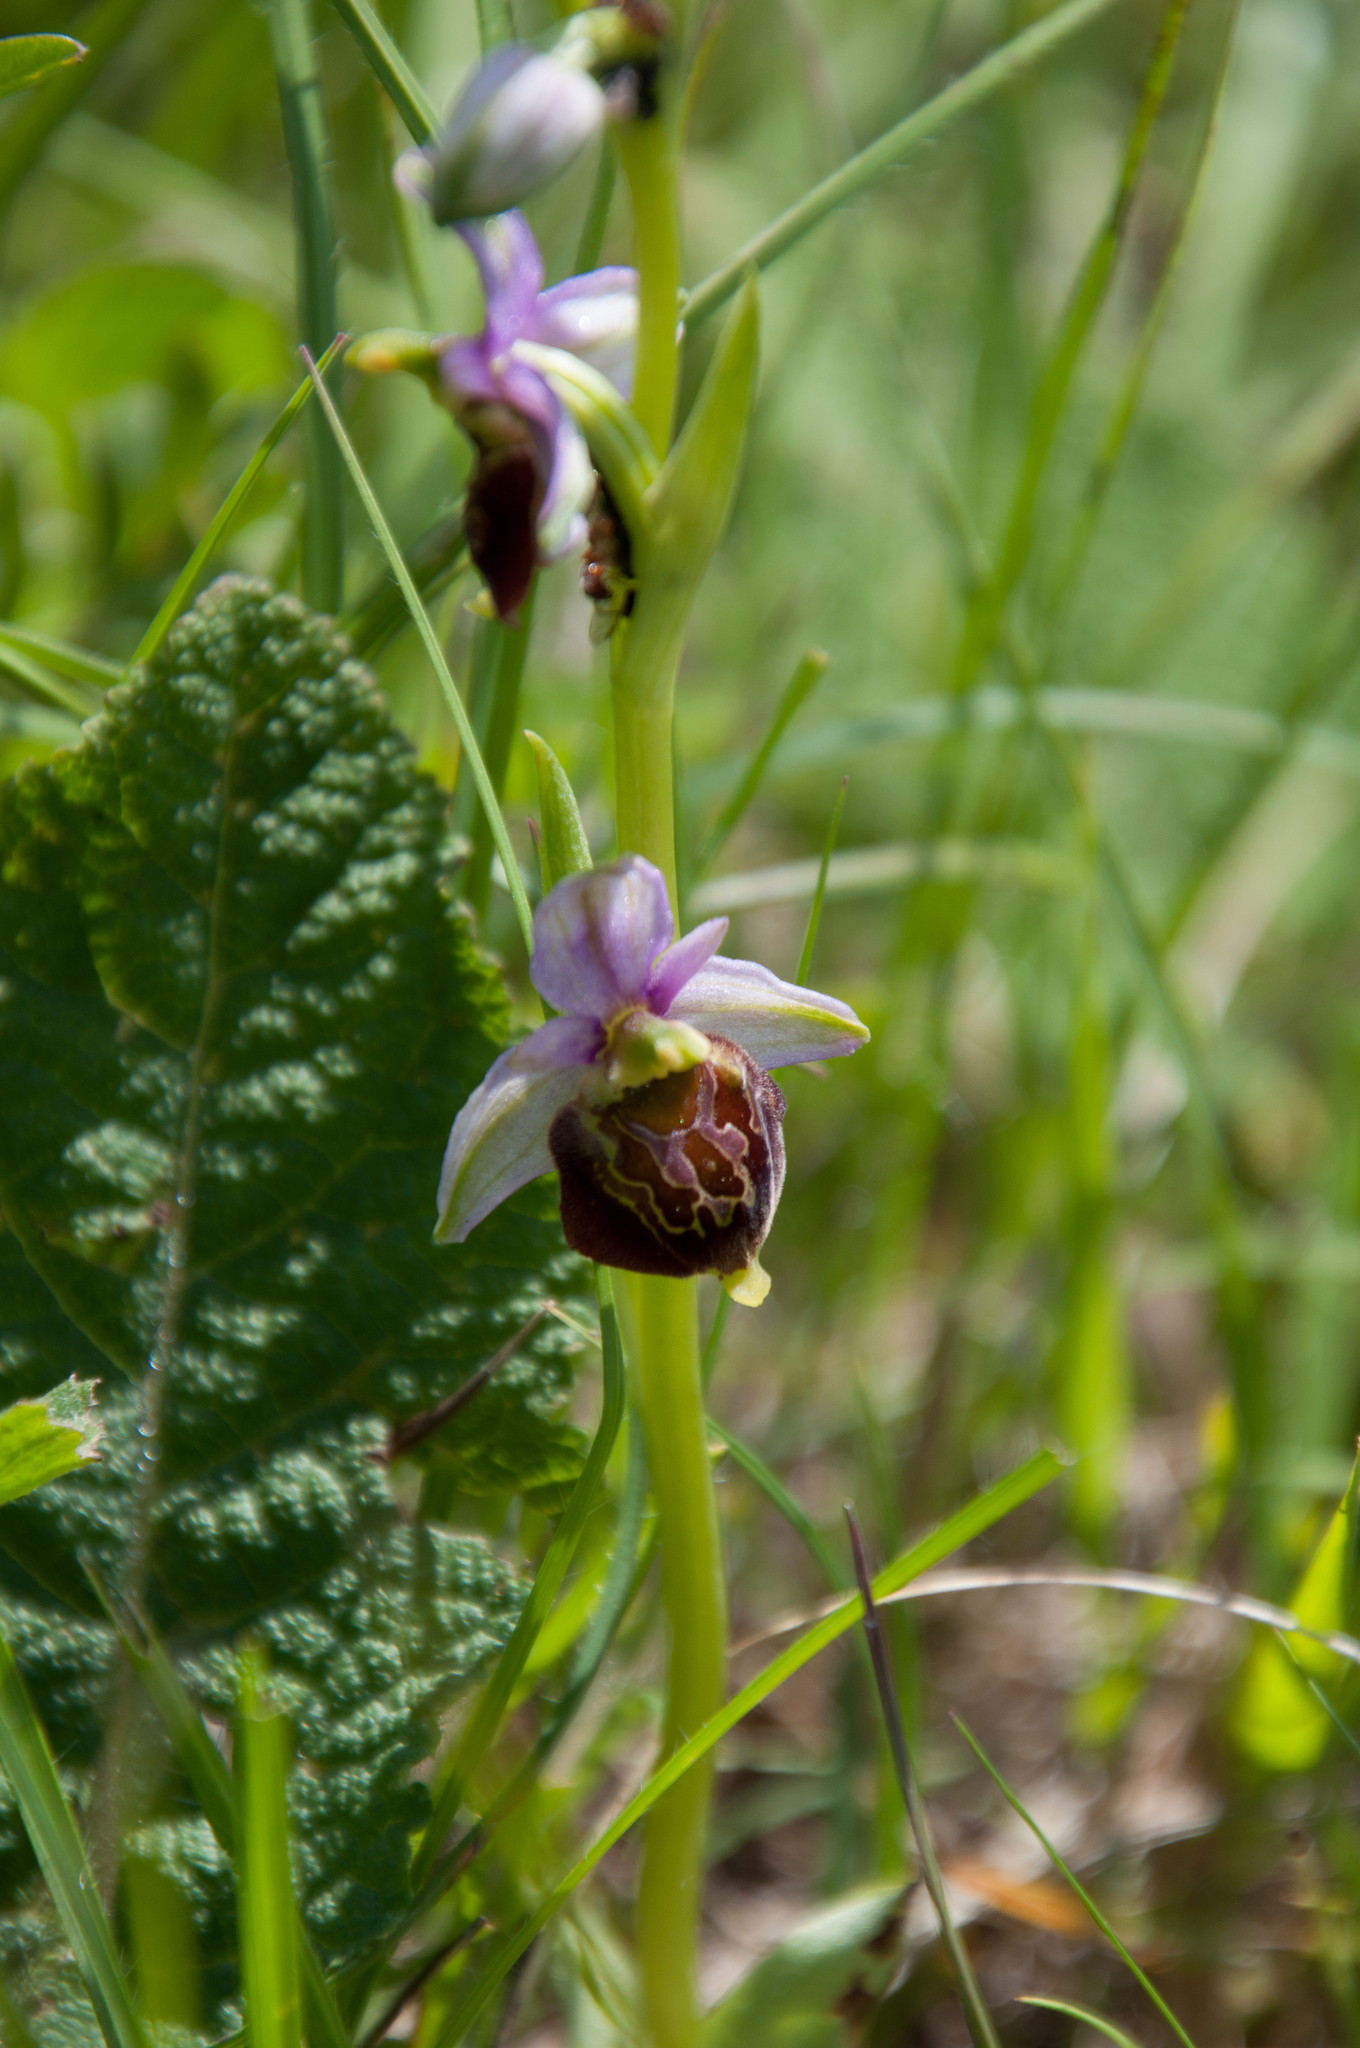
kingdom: Plantae
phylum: Tracheophyta
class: Liliopsida
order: Asparagales
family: Orchidaceae
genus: Ophrys
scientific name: Ophrys holosericea
